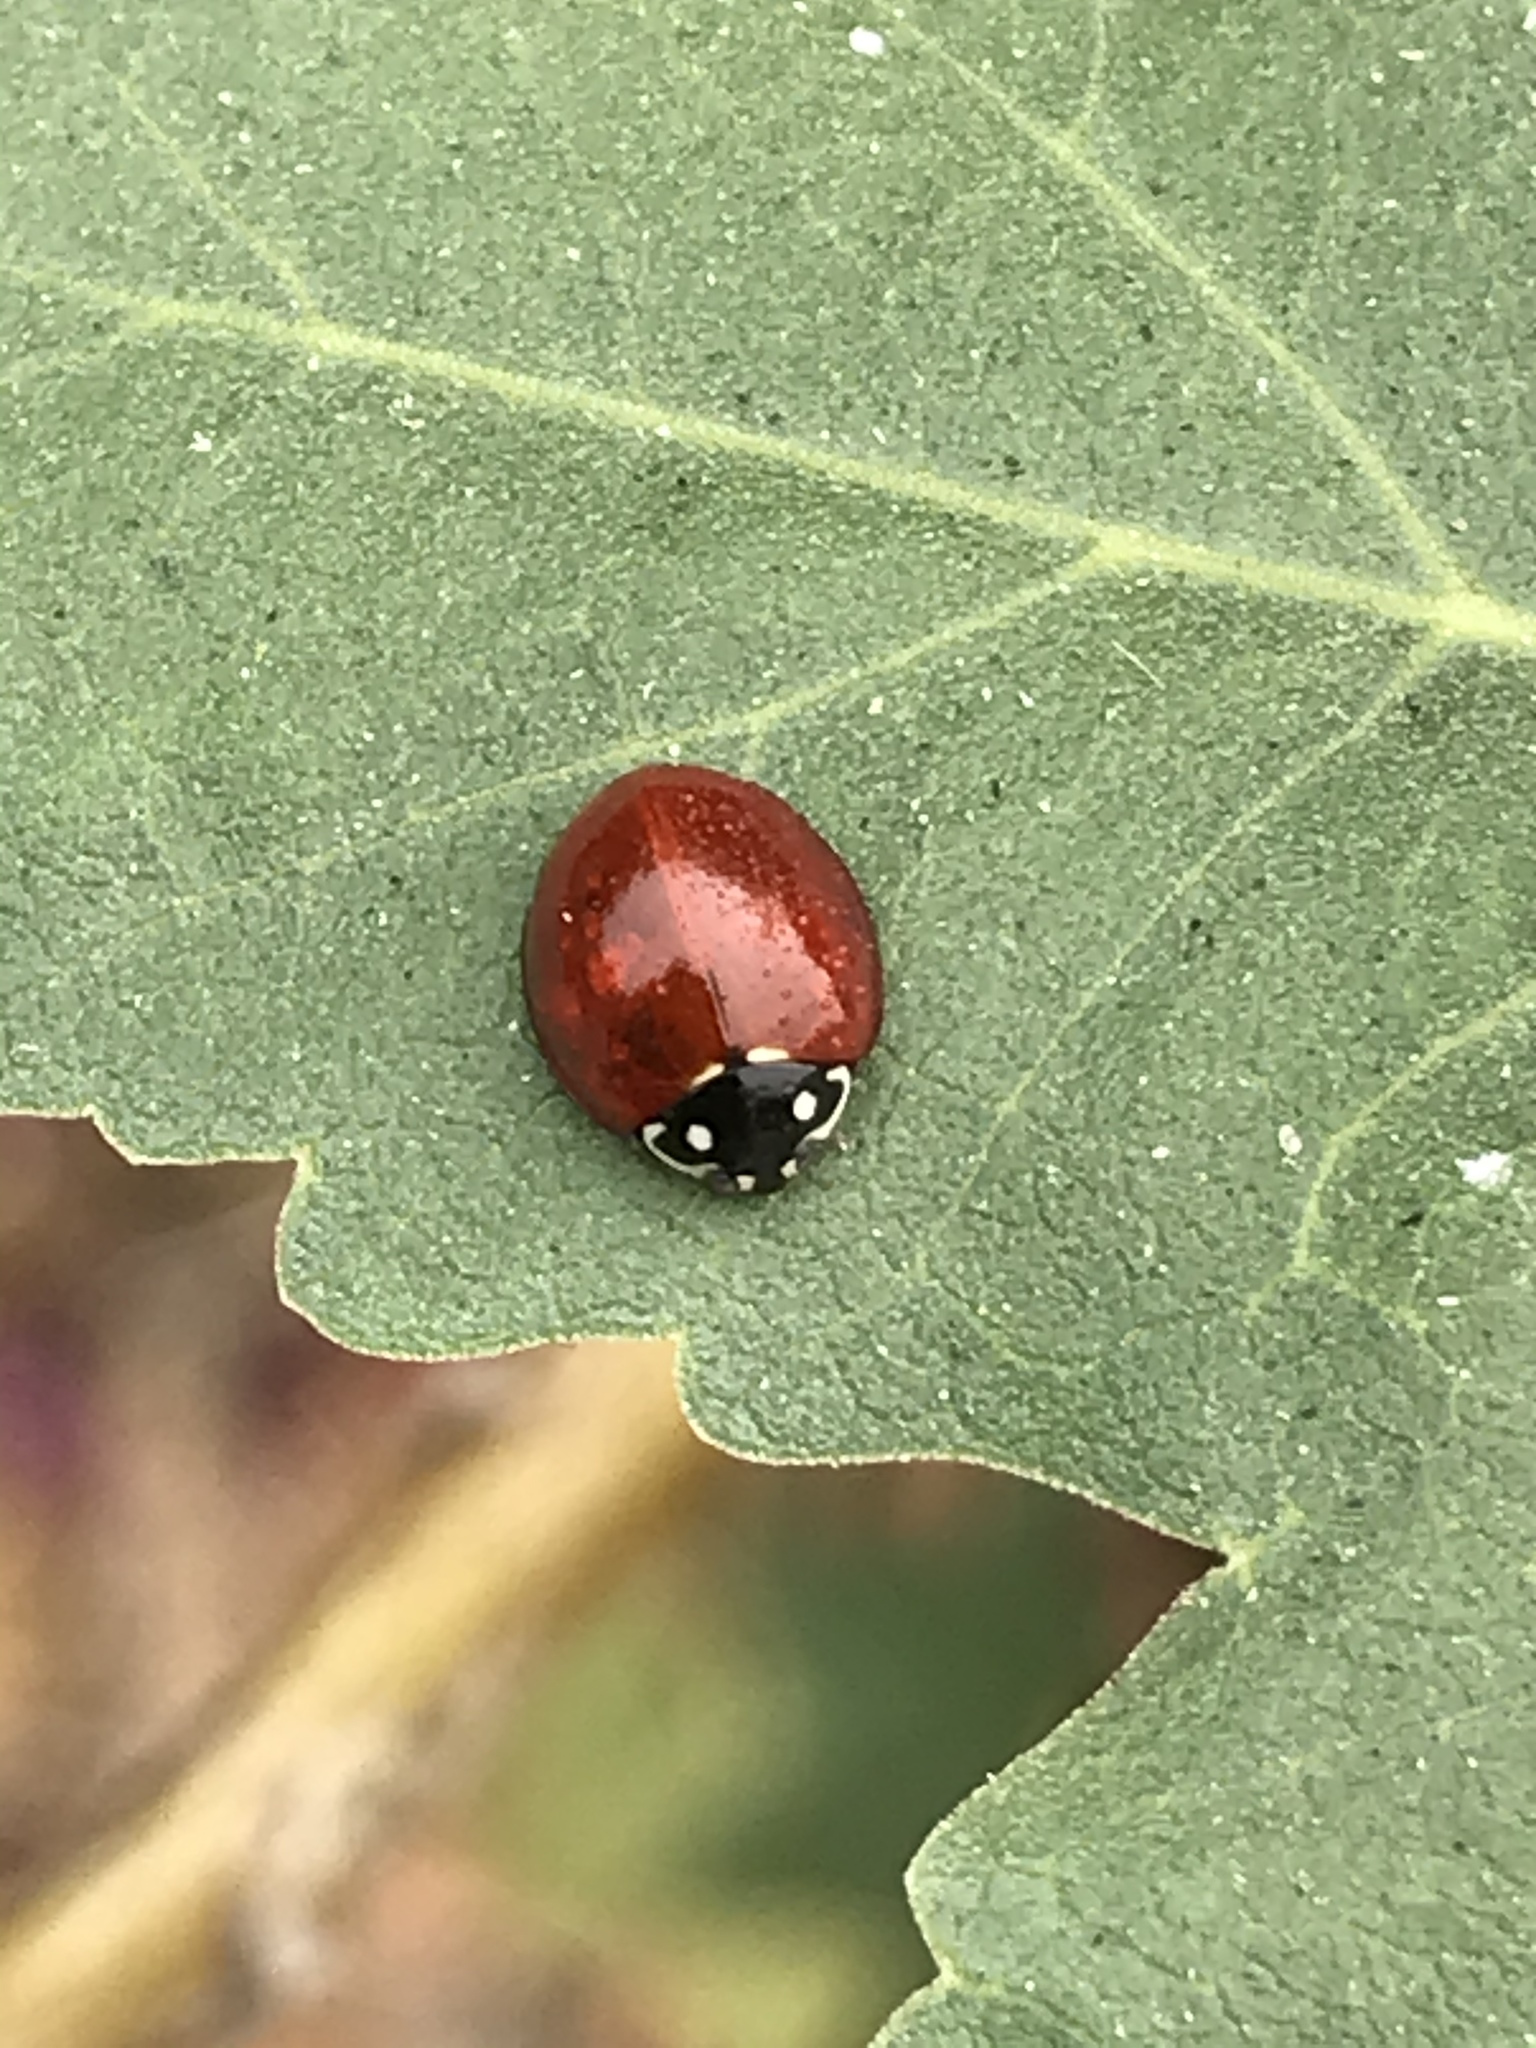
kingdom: Animalia
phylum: Arthropoda
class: Insecta
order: Coleoptera
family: Coccinellidae
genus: Cycloneda
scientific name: Cycloneda sanguinea
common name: Ladybird beetle
